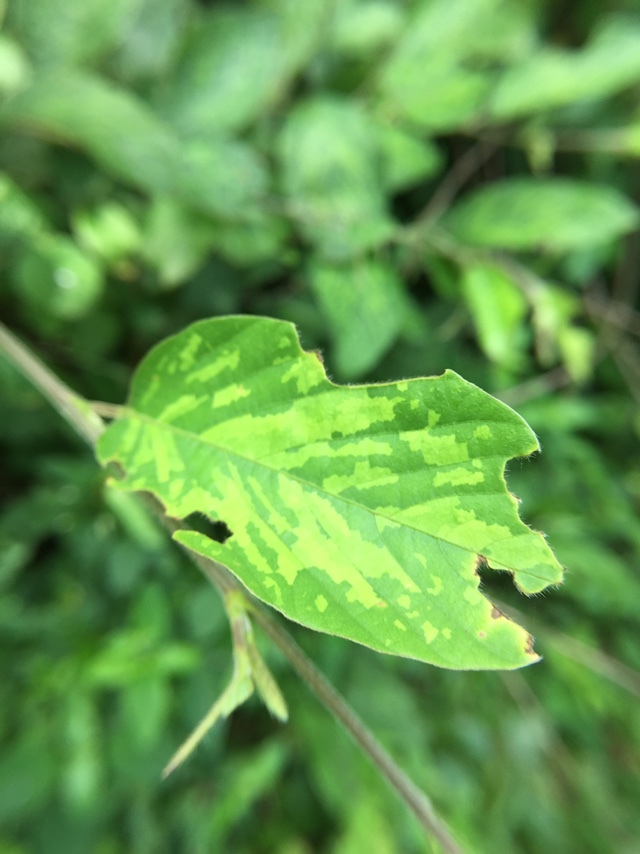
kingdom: Plantae
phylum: Tracheophyta
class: Magnoliopsida
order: Fabales
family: Fabaceae
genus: Pleurolobus
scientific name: Pleurolobus gangeticus
